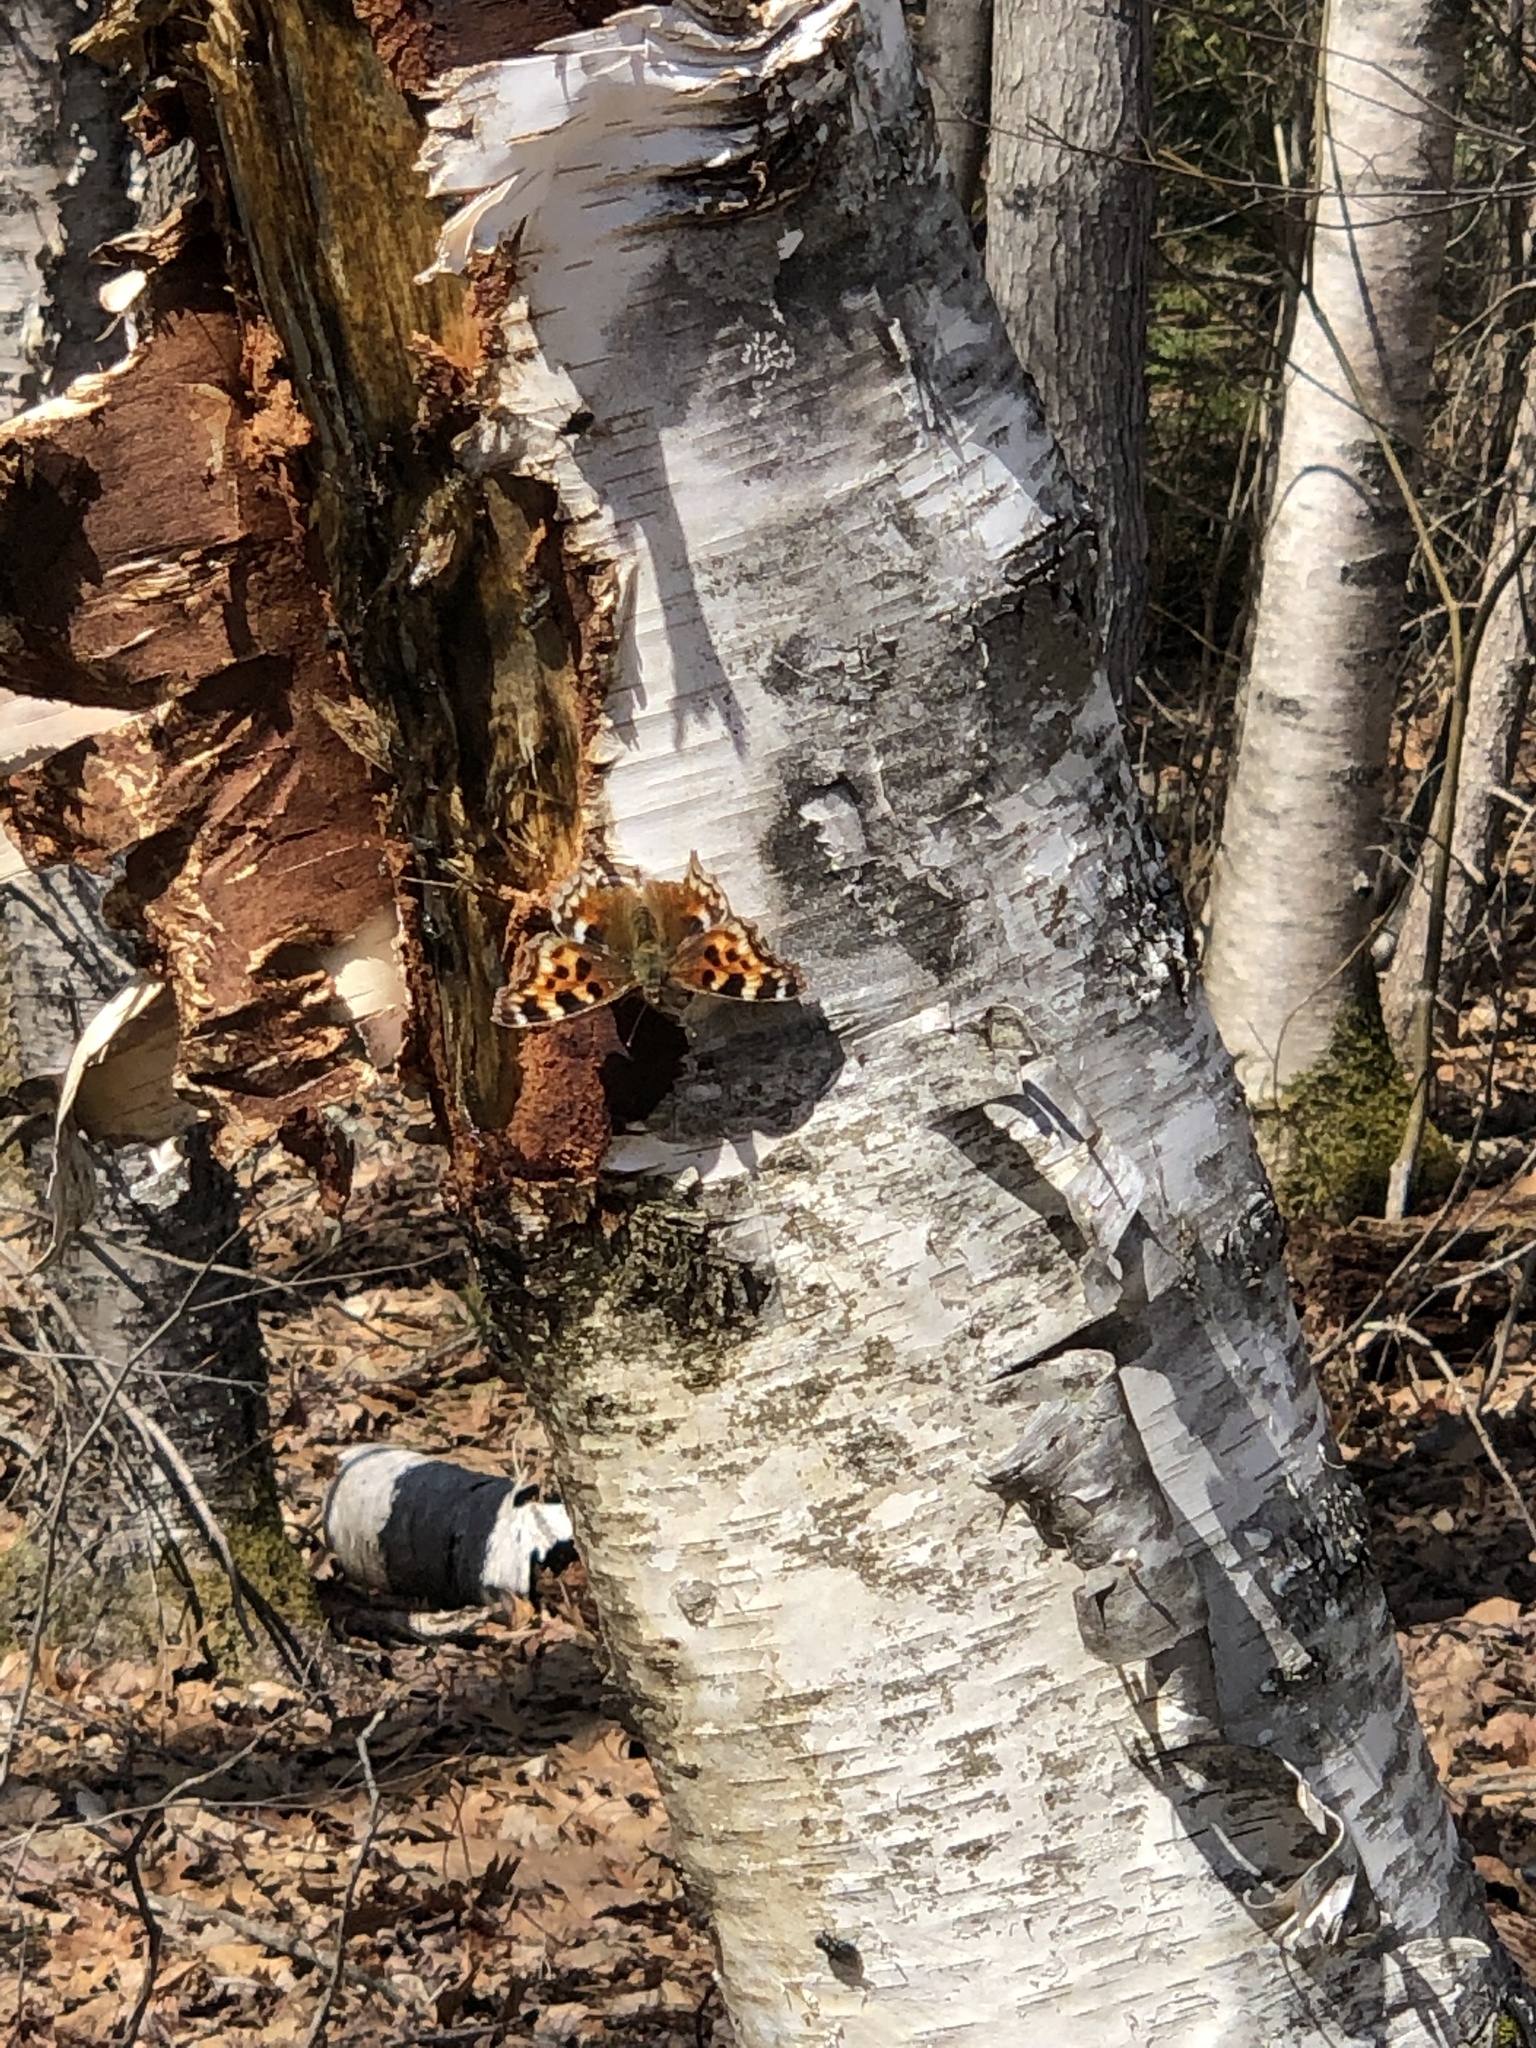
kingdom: Animalia
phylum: Arthropoda
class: Insecta
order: Lepidoptera
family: Nymphalidae
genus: Polygonia
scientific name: Polygonia vaualbum
